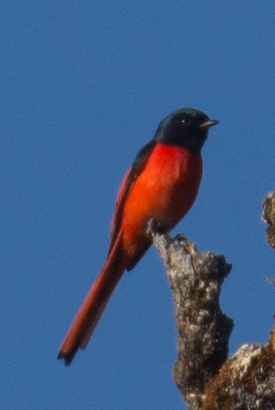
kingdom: Animalia
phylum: Chordata
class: Aves
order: Passeriformes
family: Campephagidae
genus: Pericrocotus
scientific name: Pericrocotus ethologus
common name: Long-tailed minivet
